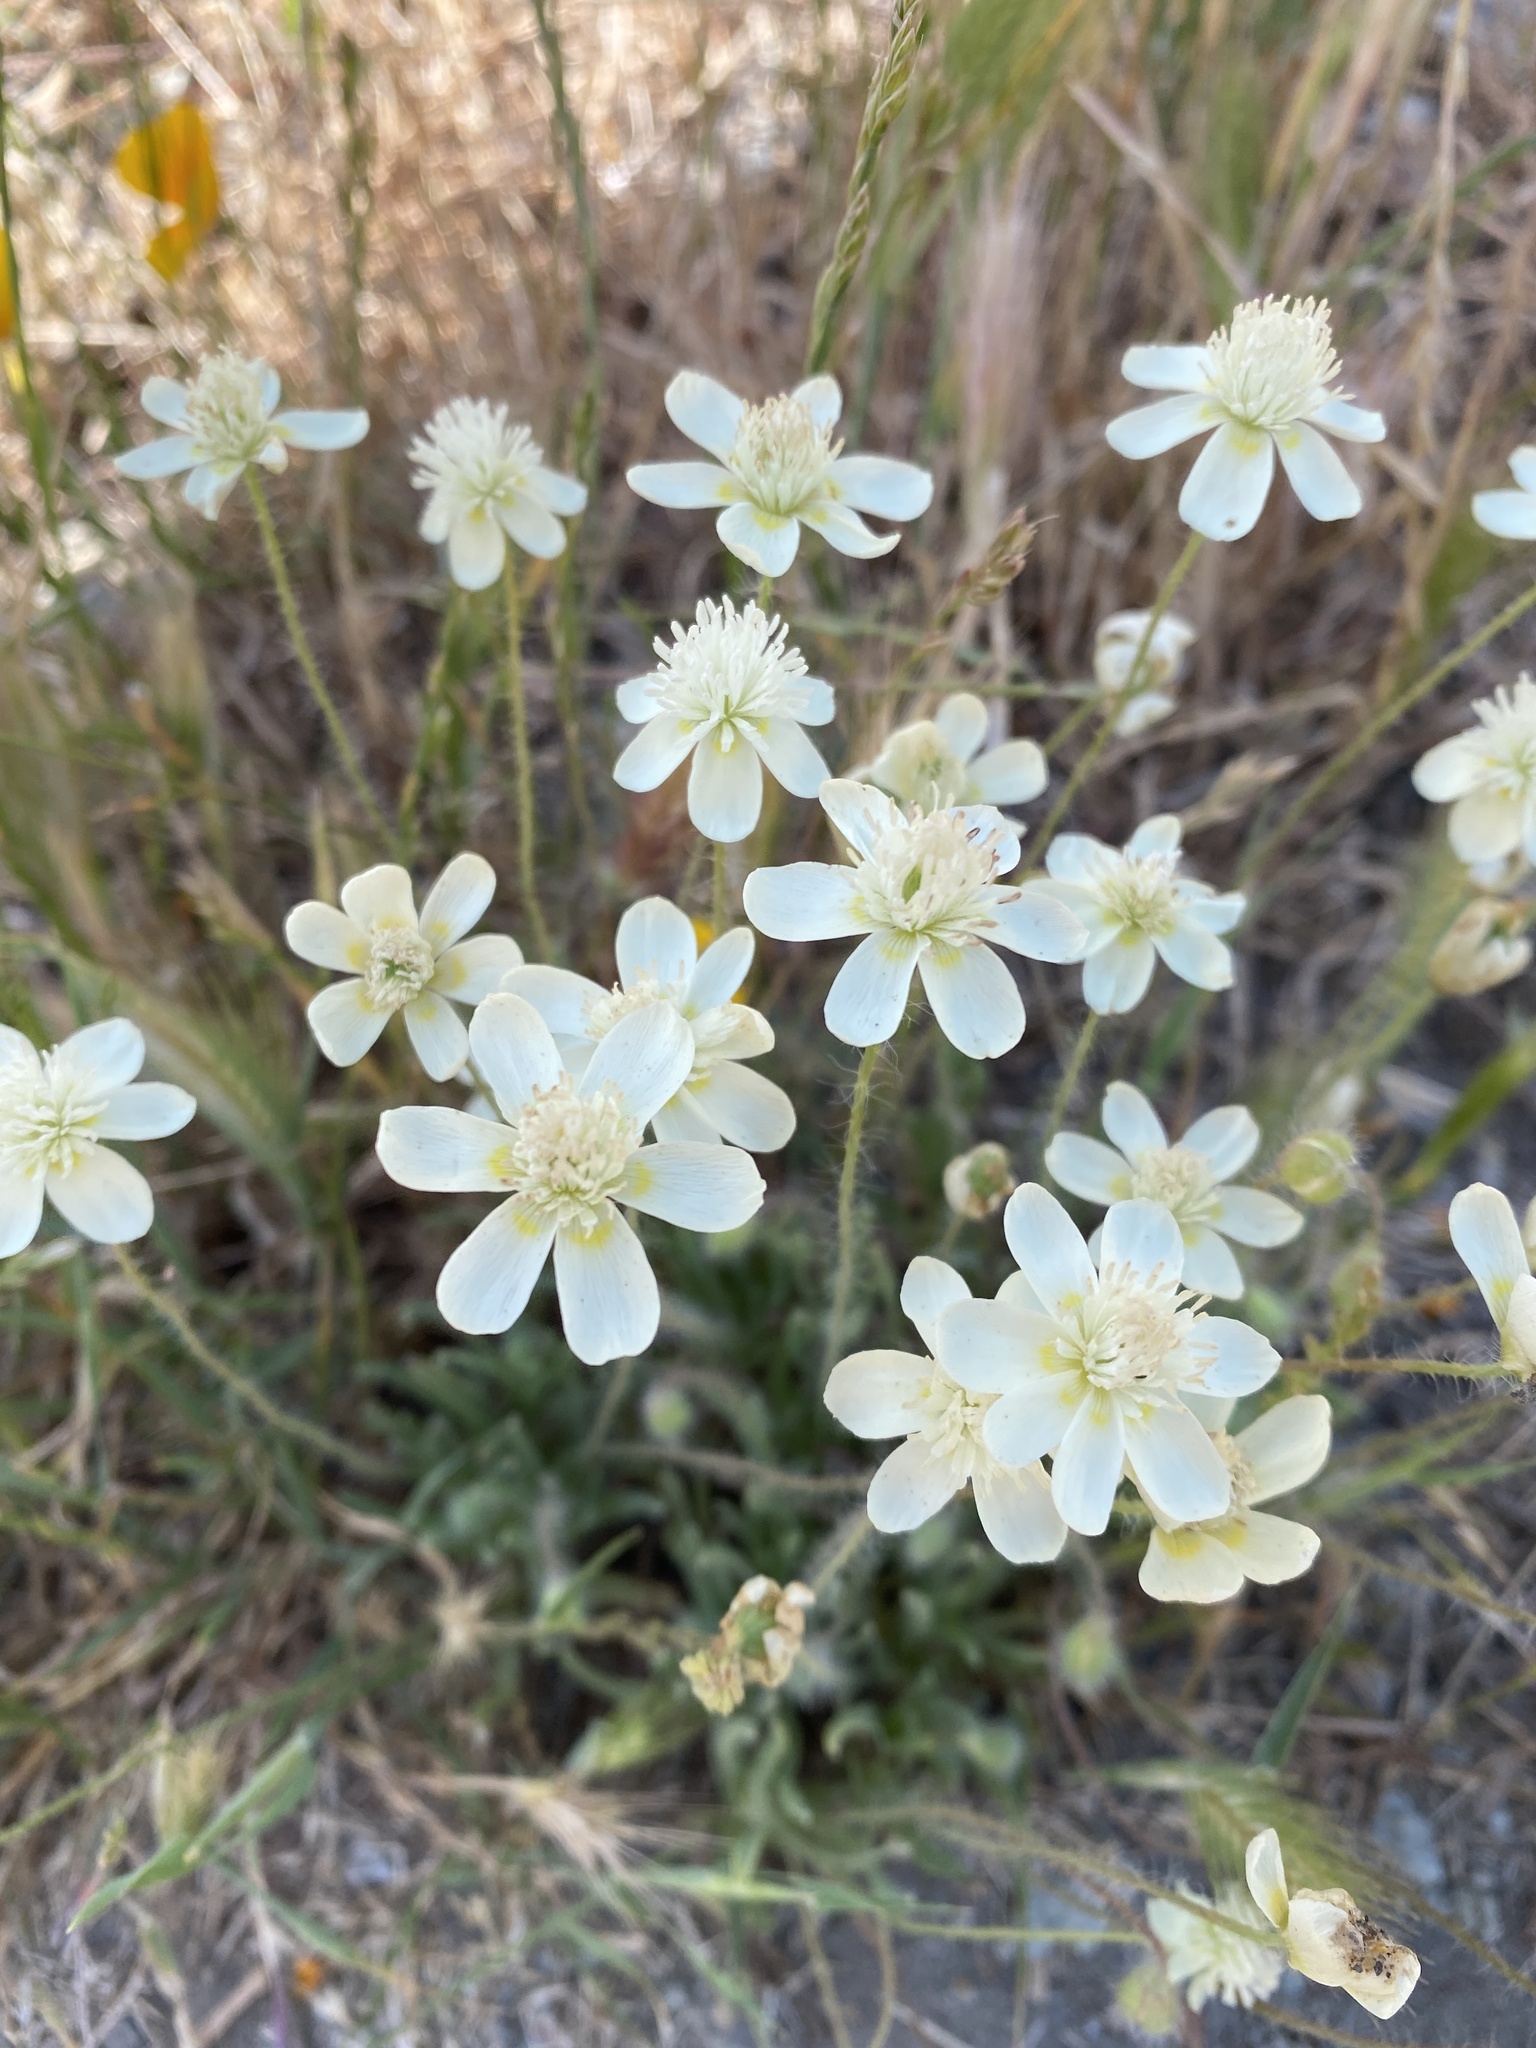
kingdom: Plantae
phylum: Tracheophyta
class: Magnoliopsida
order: Ranunculales
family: Papaveraceae
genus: Platystemon
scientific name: Platystemon californicus
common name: Cream-cups
